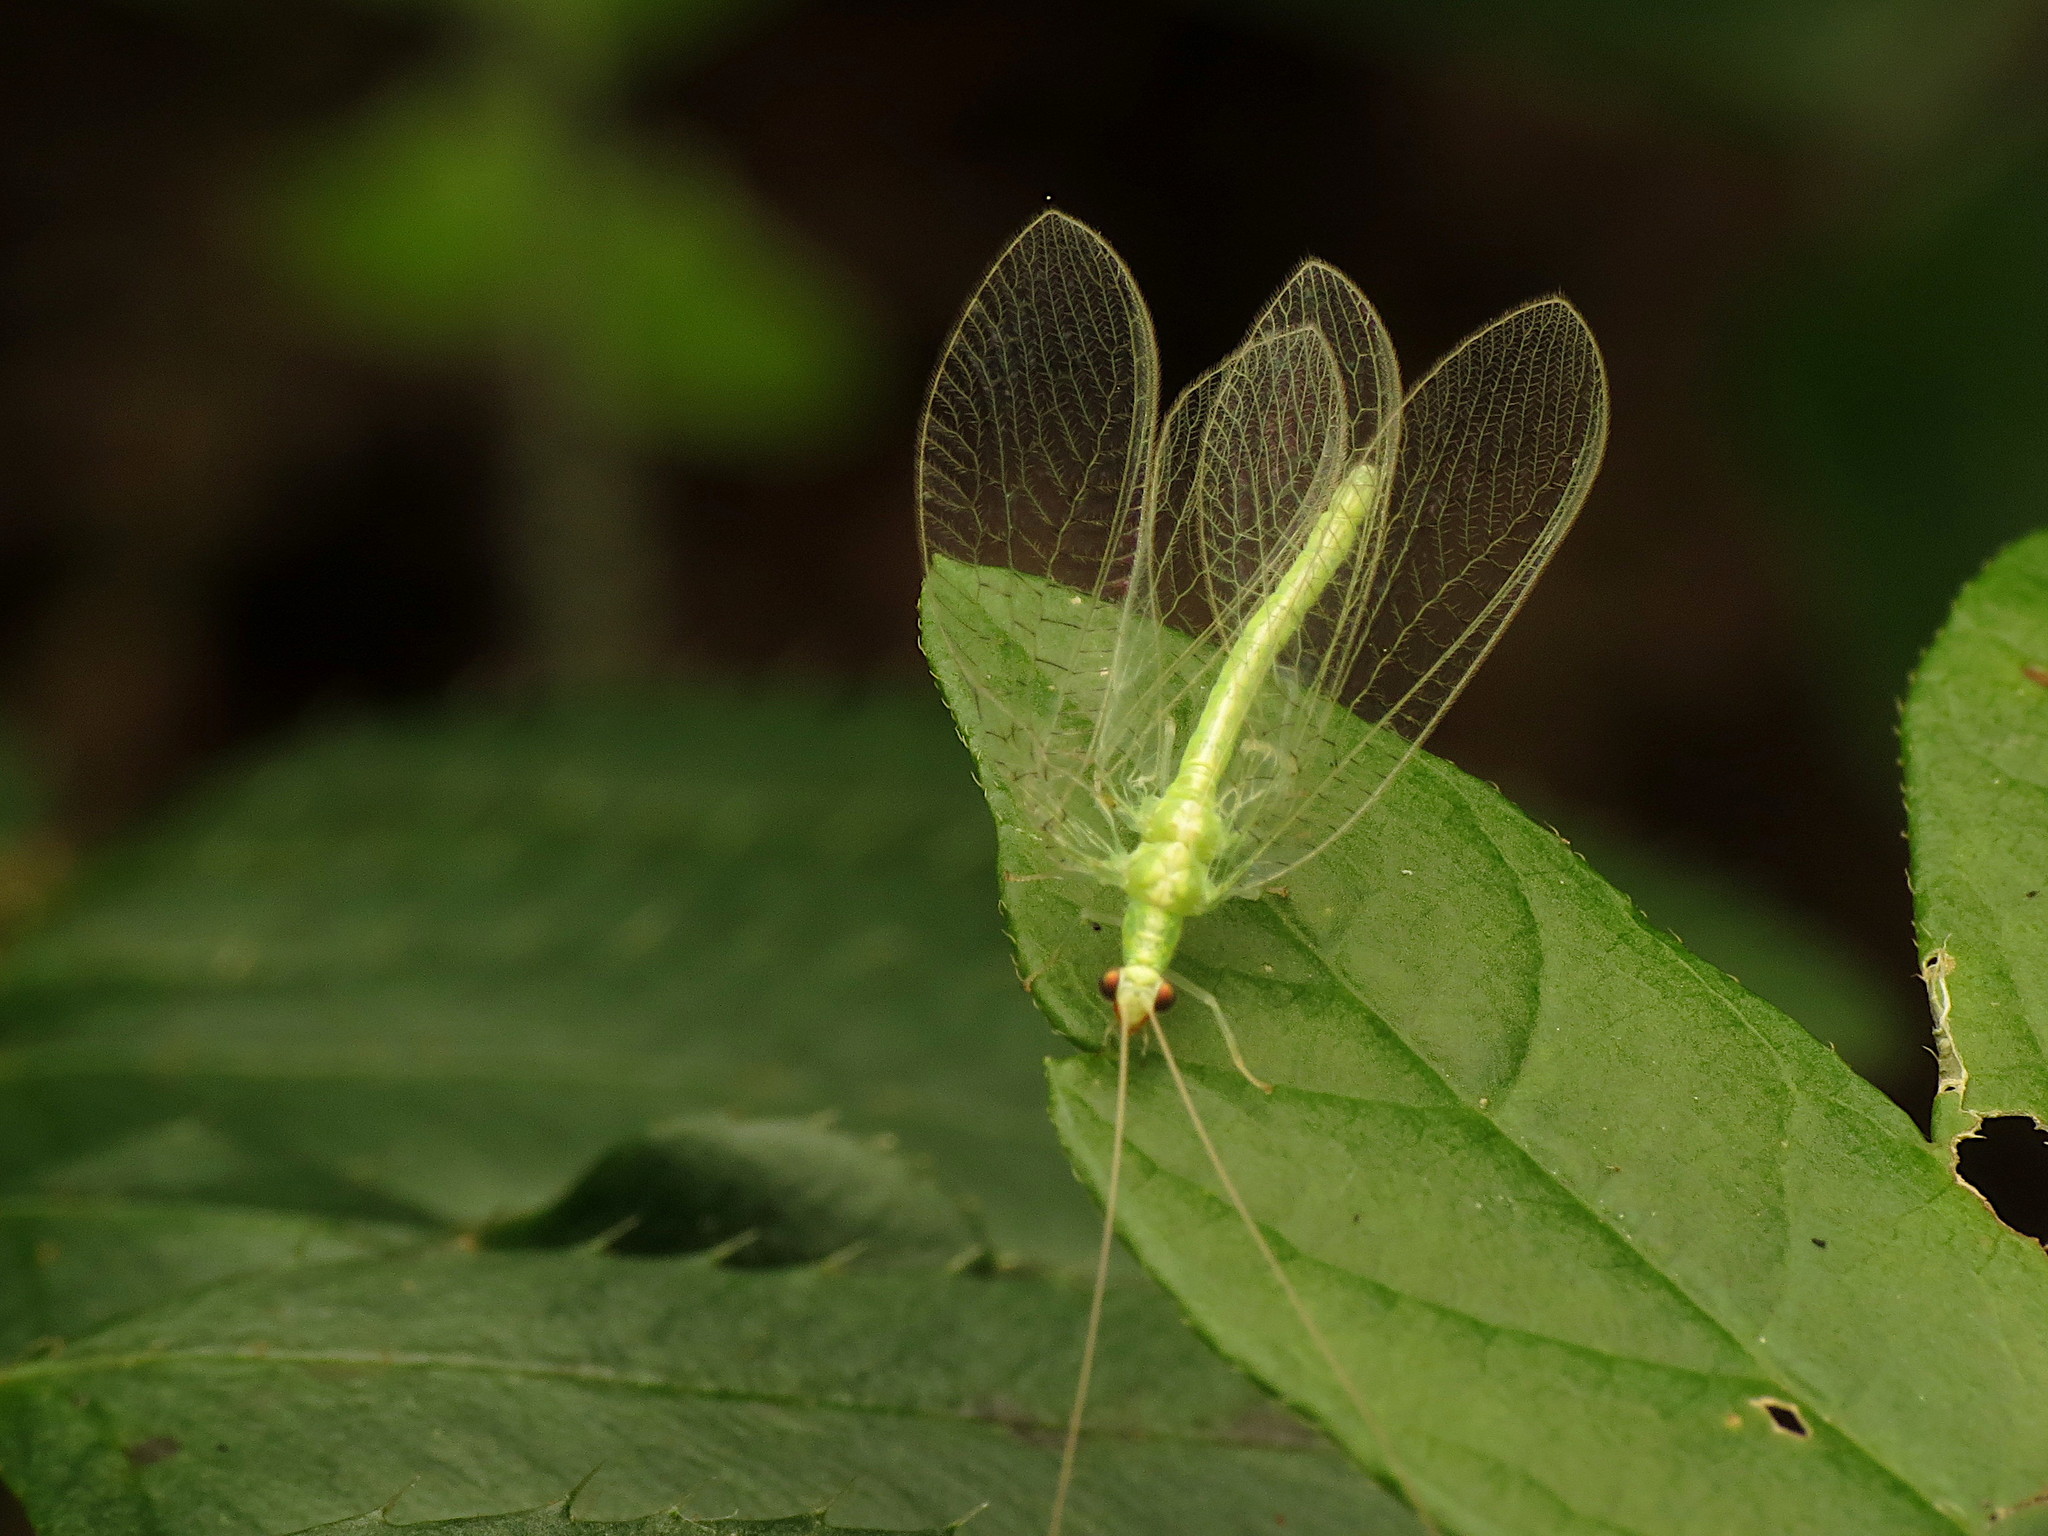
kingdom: Animalia
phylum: Arthropoda
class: Insecta
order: Neuroptera
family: Chrysopidae
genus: Chrysoperla
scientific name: Chrysoperla rufilabris
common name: Red-lipped green lacewing
